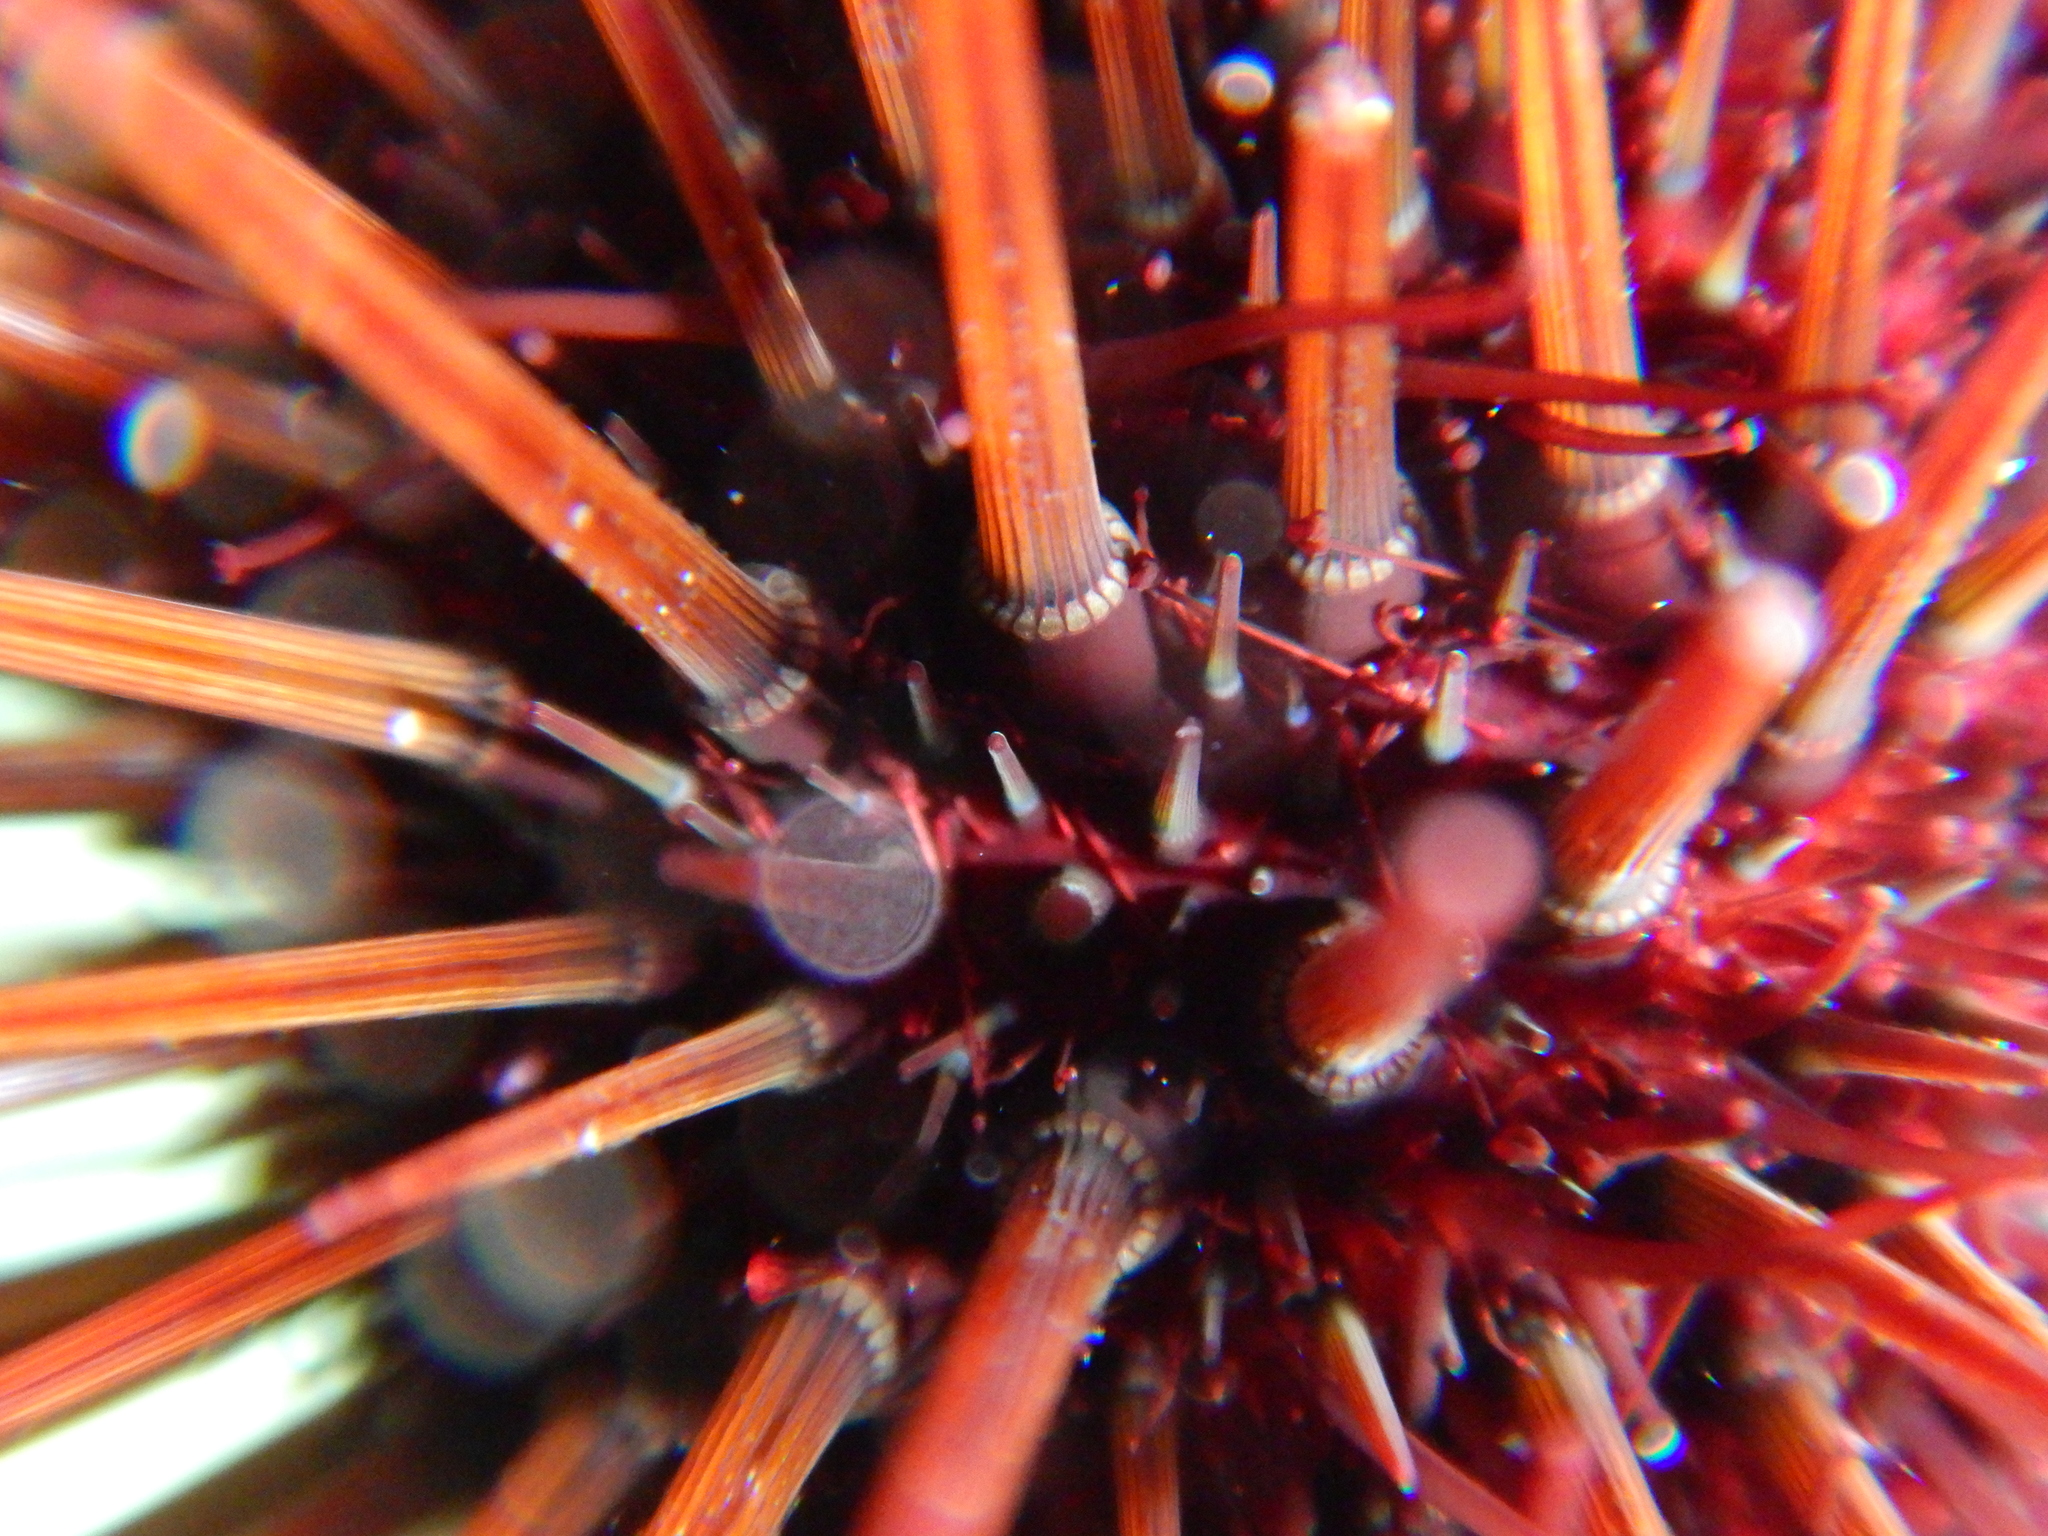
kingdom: Animalia
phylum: Echinodermata
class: Echinoidea
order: Camarodonta
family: Parechinidae
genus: Paracentrotus
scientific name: Paracentrotus lividus
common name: Purple sea urchin
